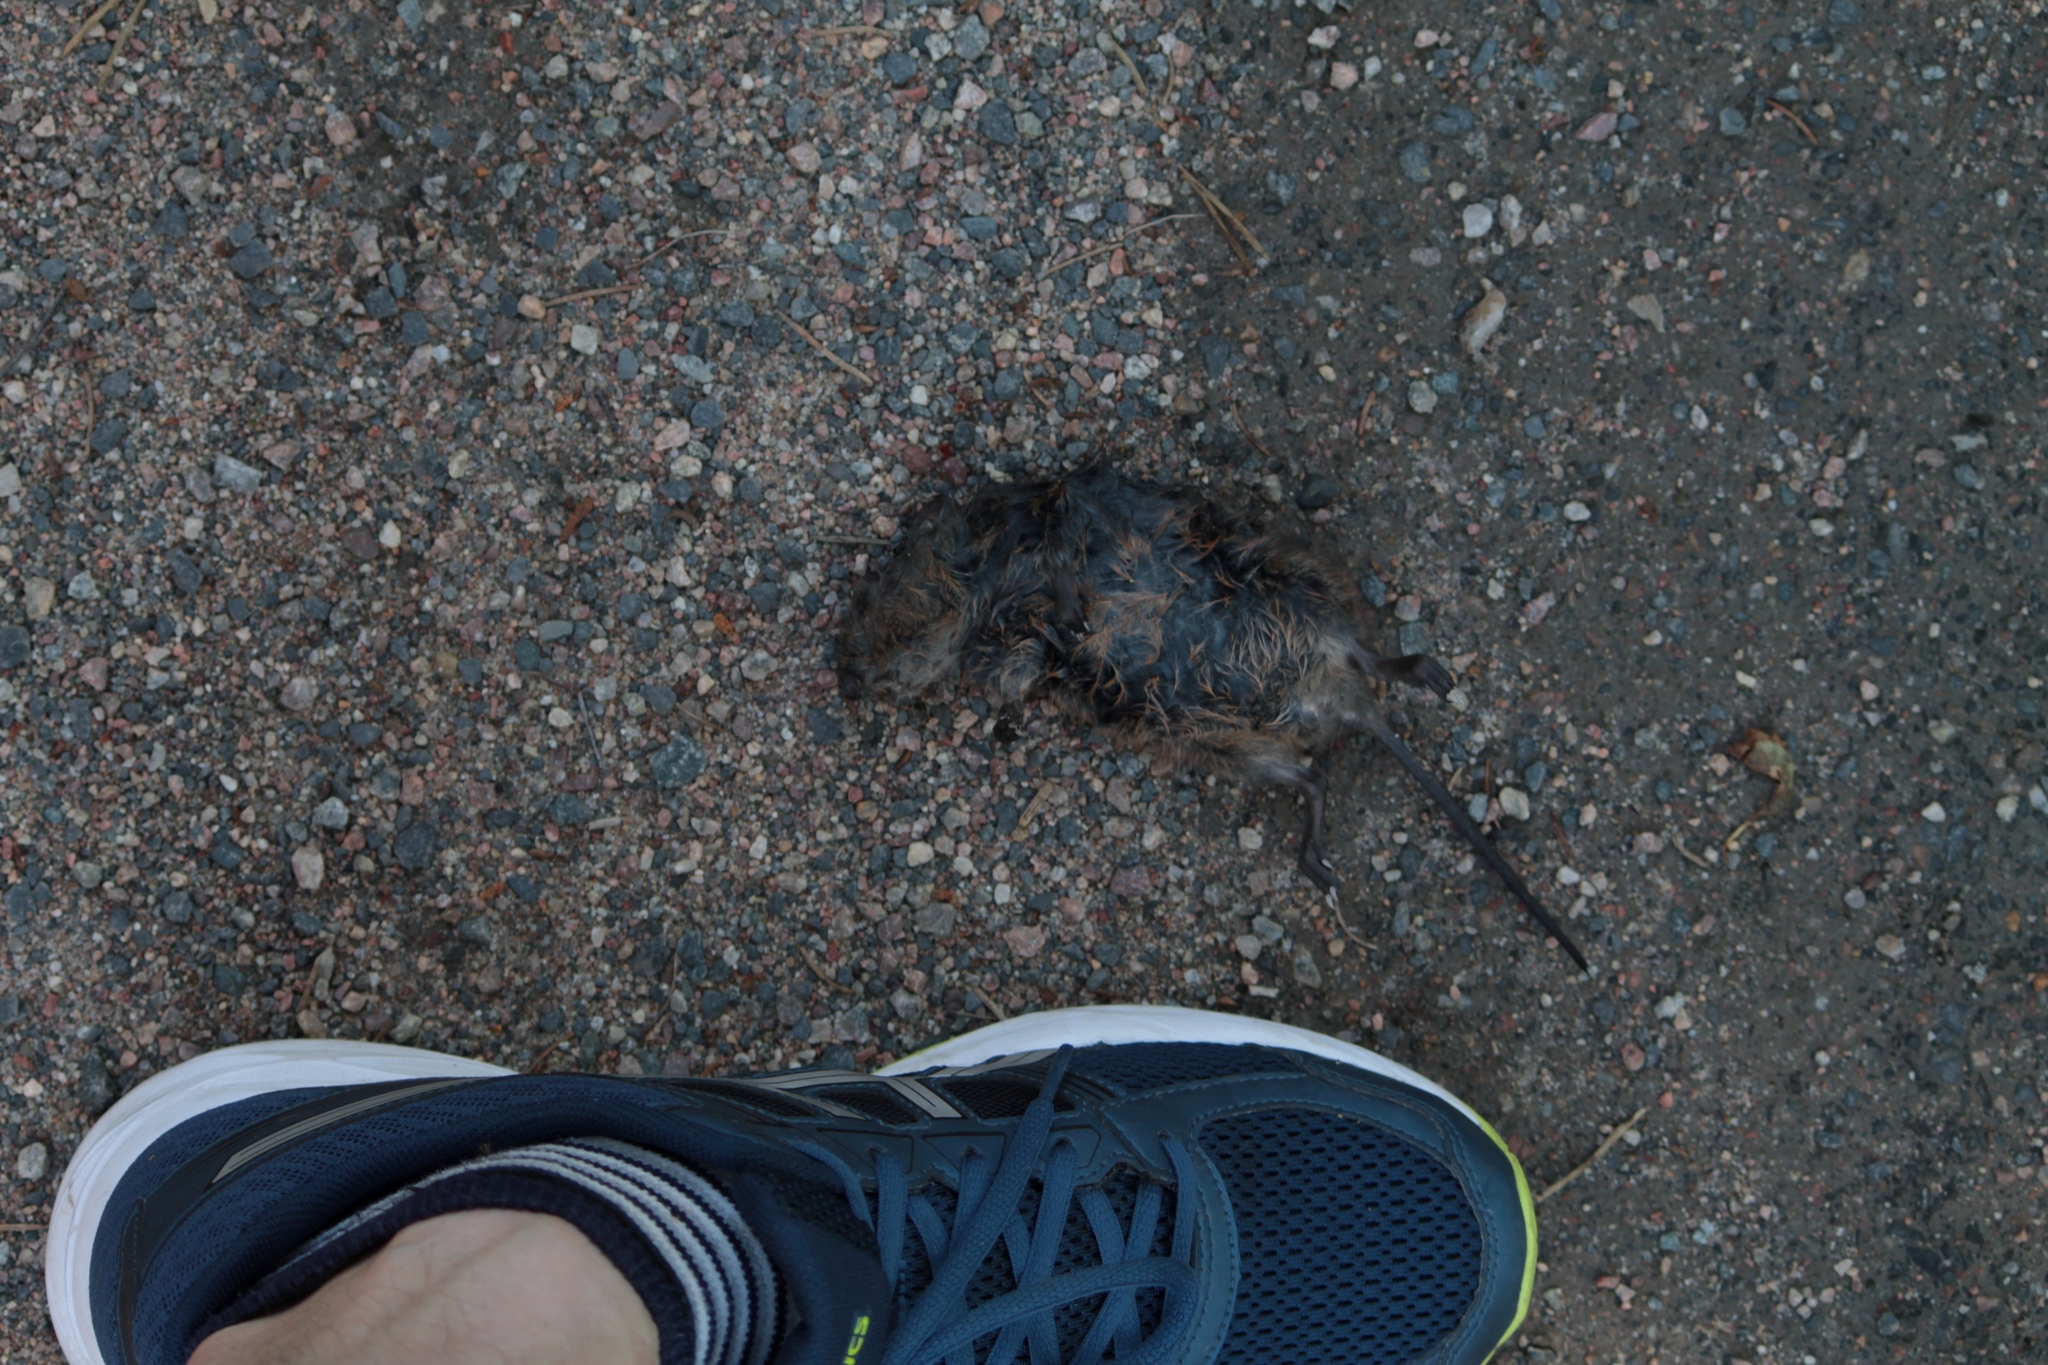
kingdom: Animalia
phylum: Chordata
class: Mammalia
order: Rodentia
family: Cricetidae
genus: Arvicola
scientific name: Arvicola amphibius
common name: European water vole
